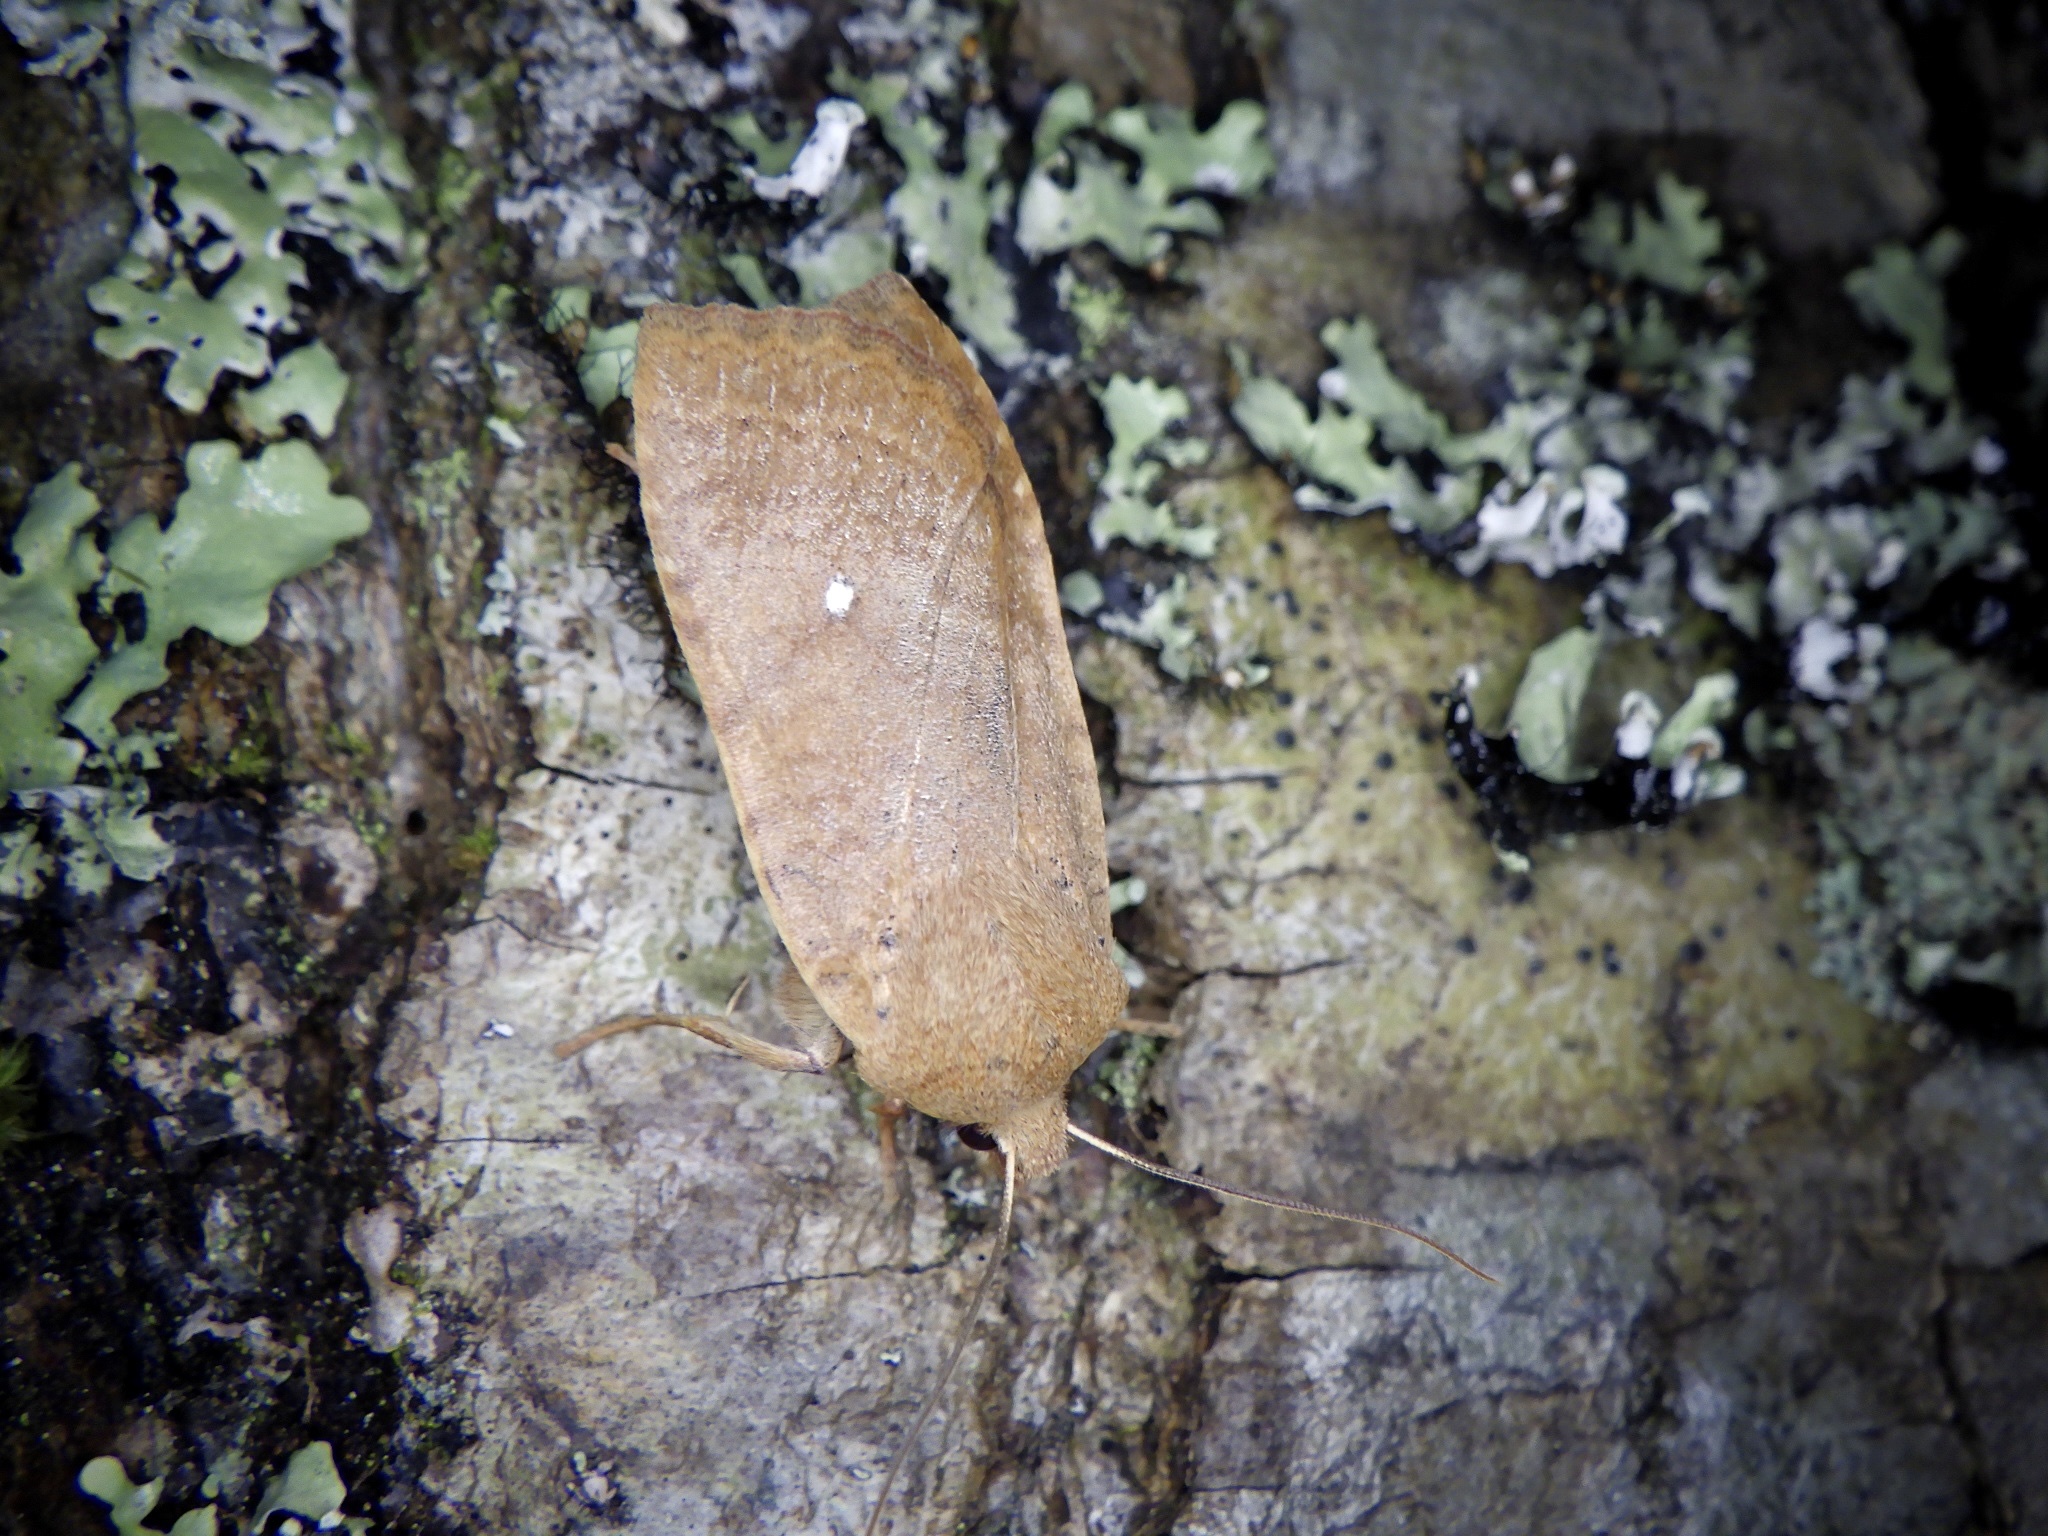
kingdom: Animalia
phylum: Arthropoda
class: Insecta
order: Lepidoptera
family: Noctuidae
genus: Conistra
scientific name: Conistra albipuncta
